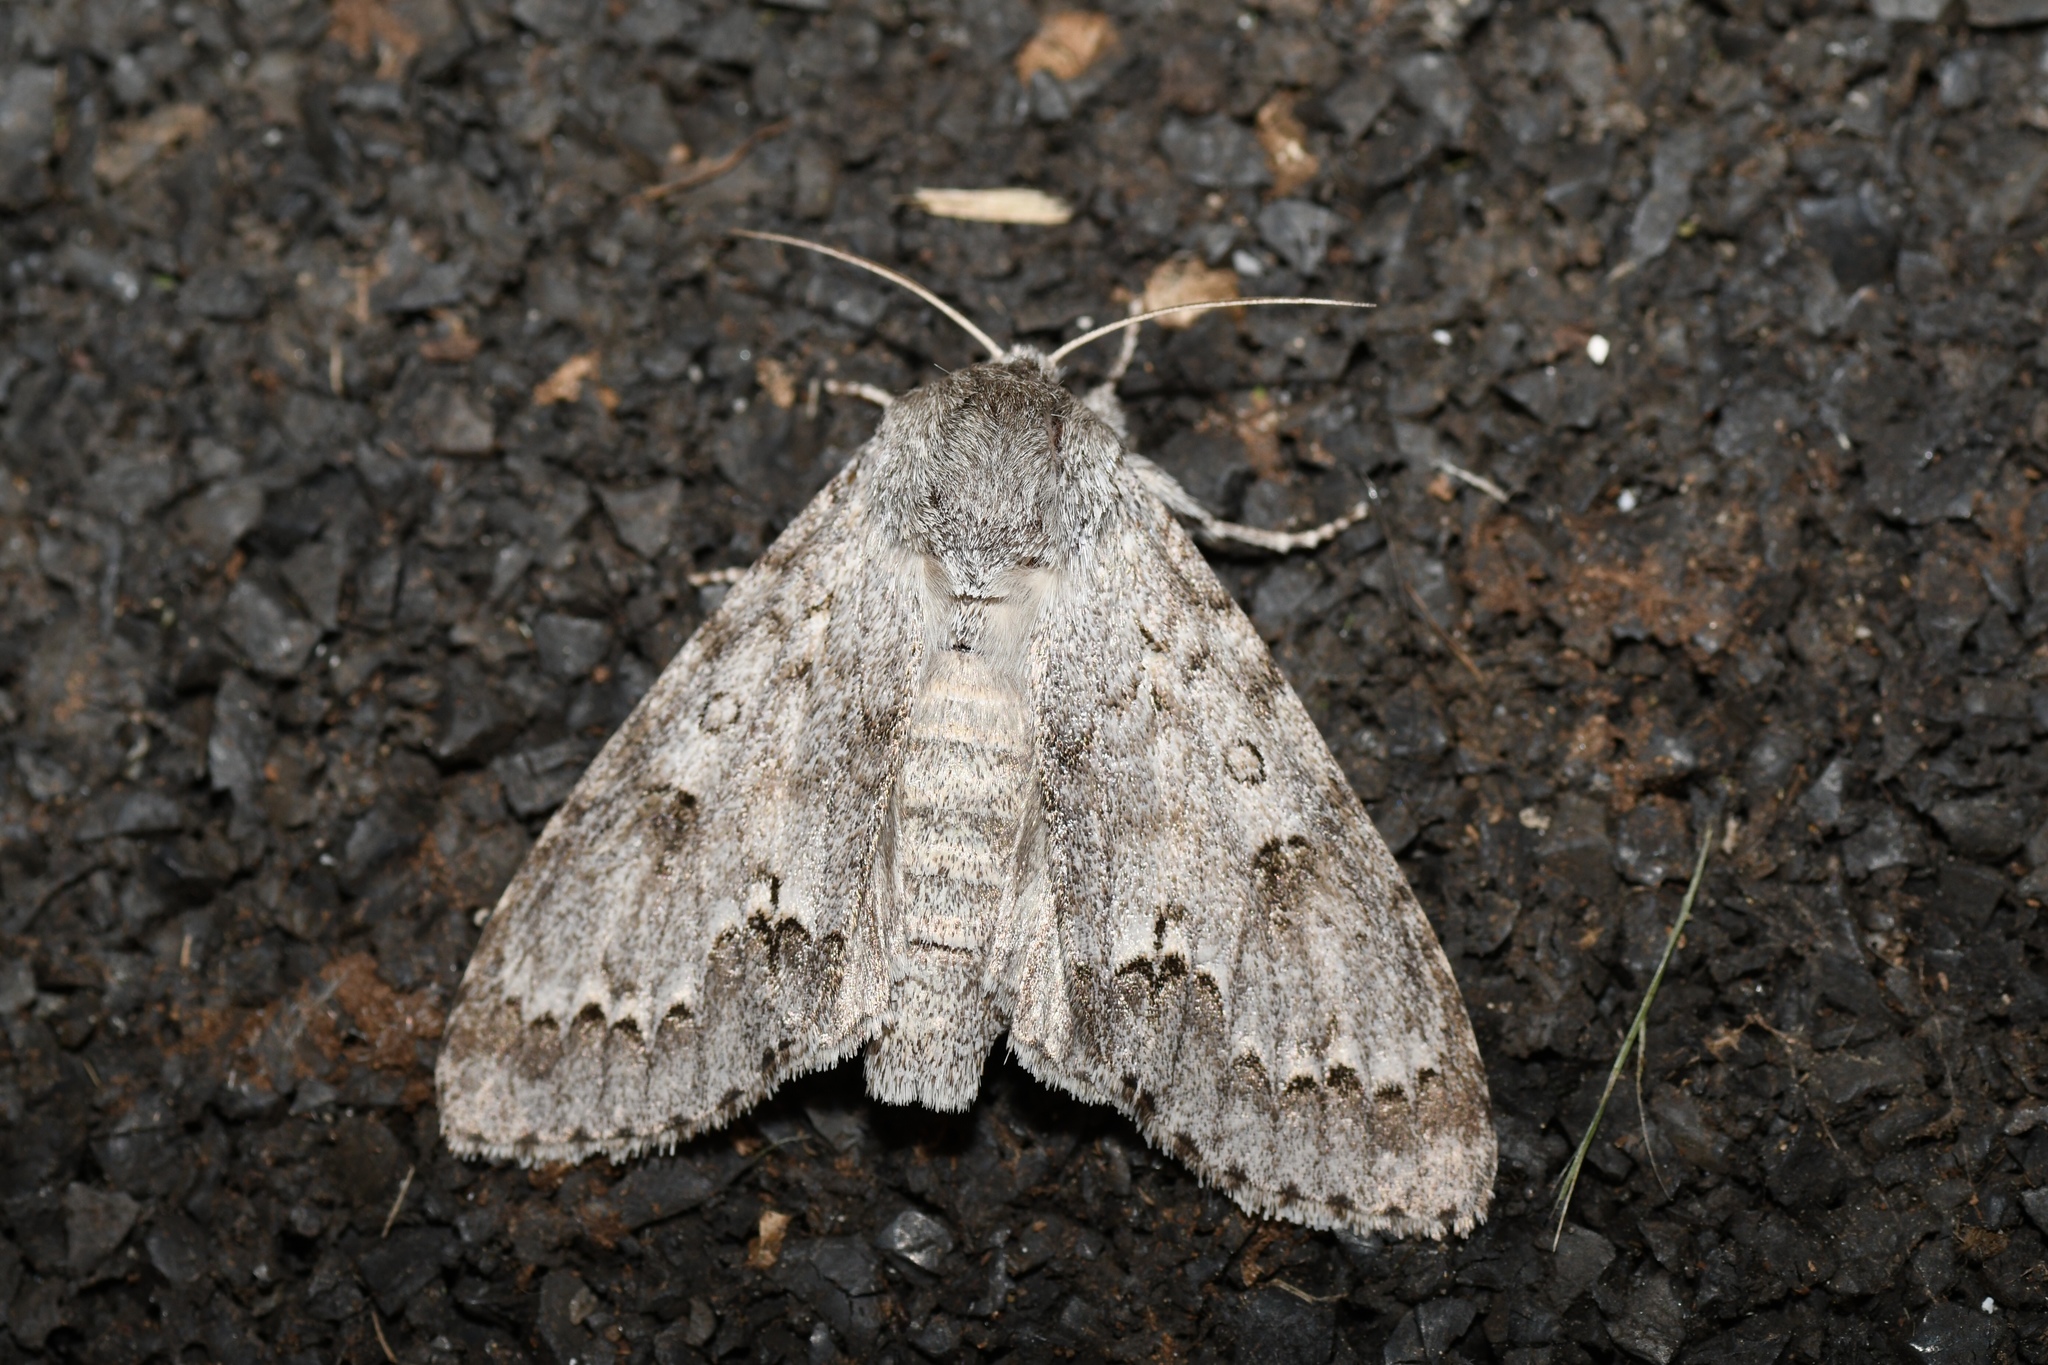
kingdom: Animalia
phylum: Arthropoda
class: Insecta
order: Lepidoptera
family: Noctuidae
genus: Acronicta
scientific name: Acronicta insita
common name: Large gray dagger
